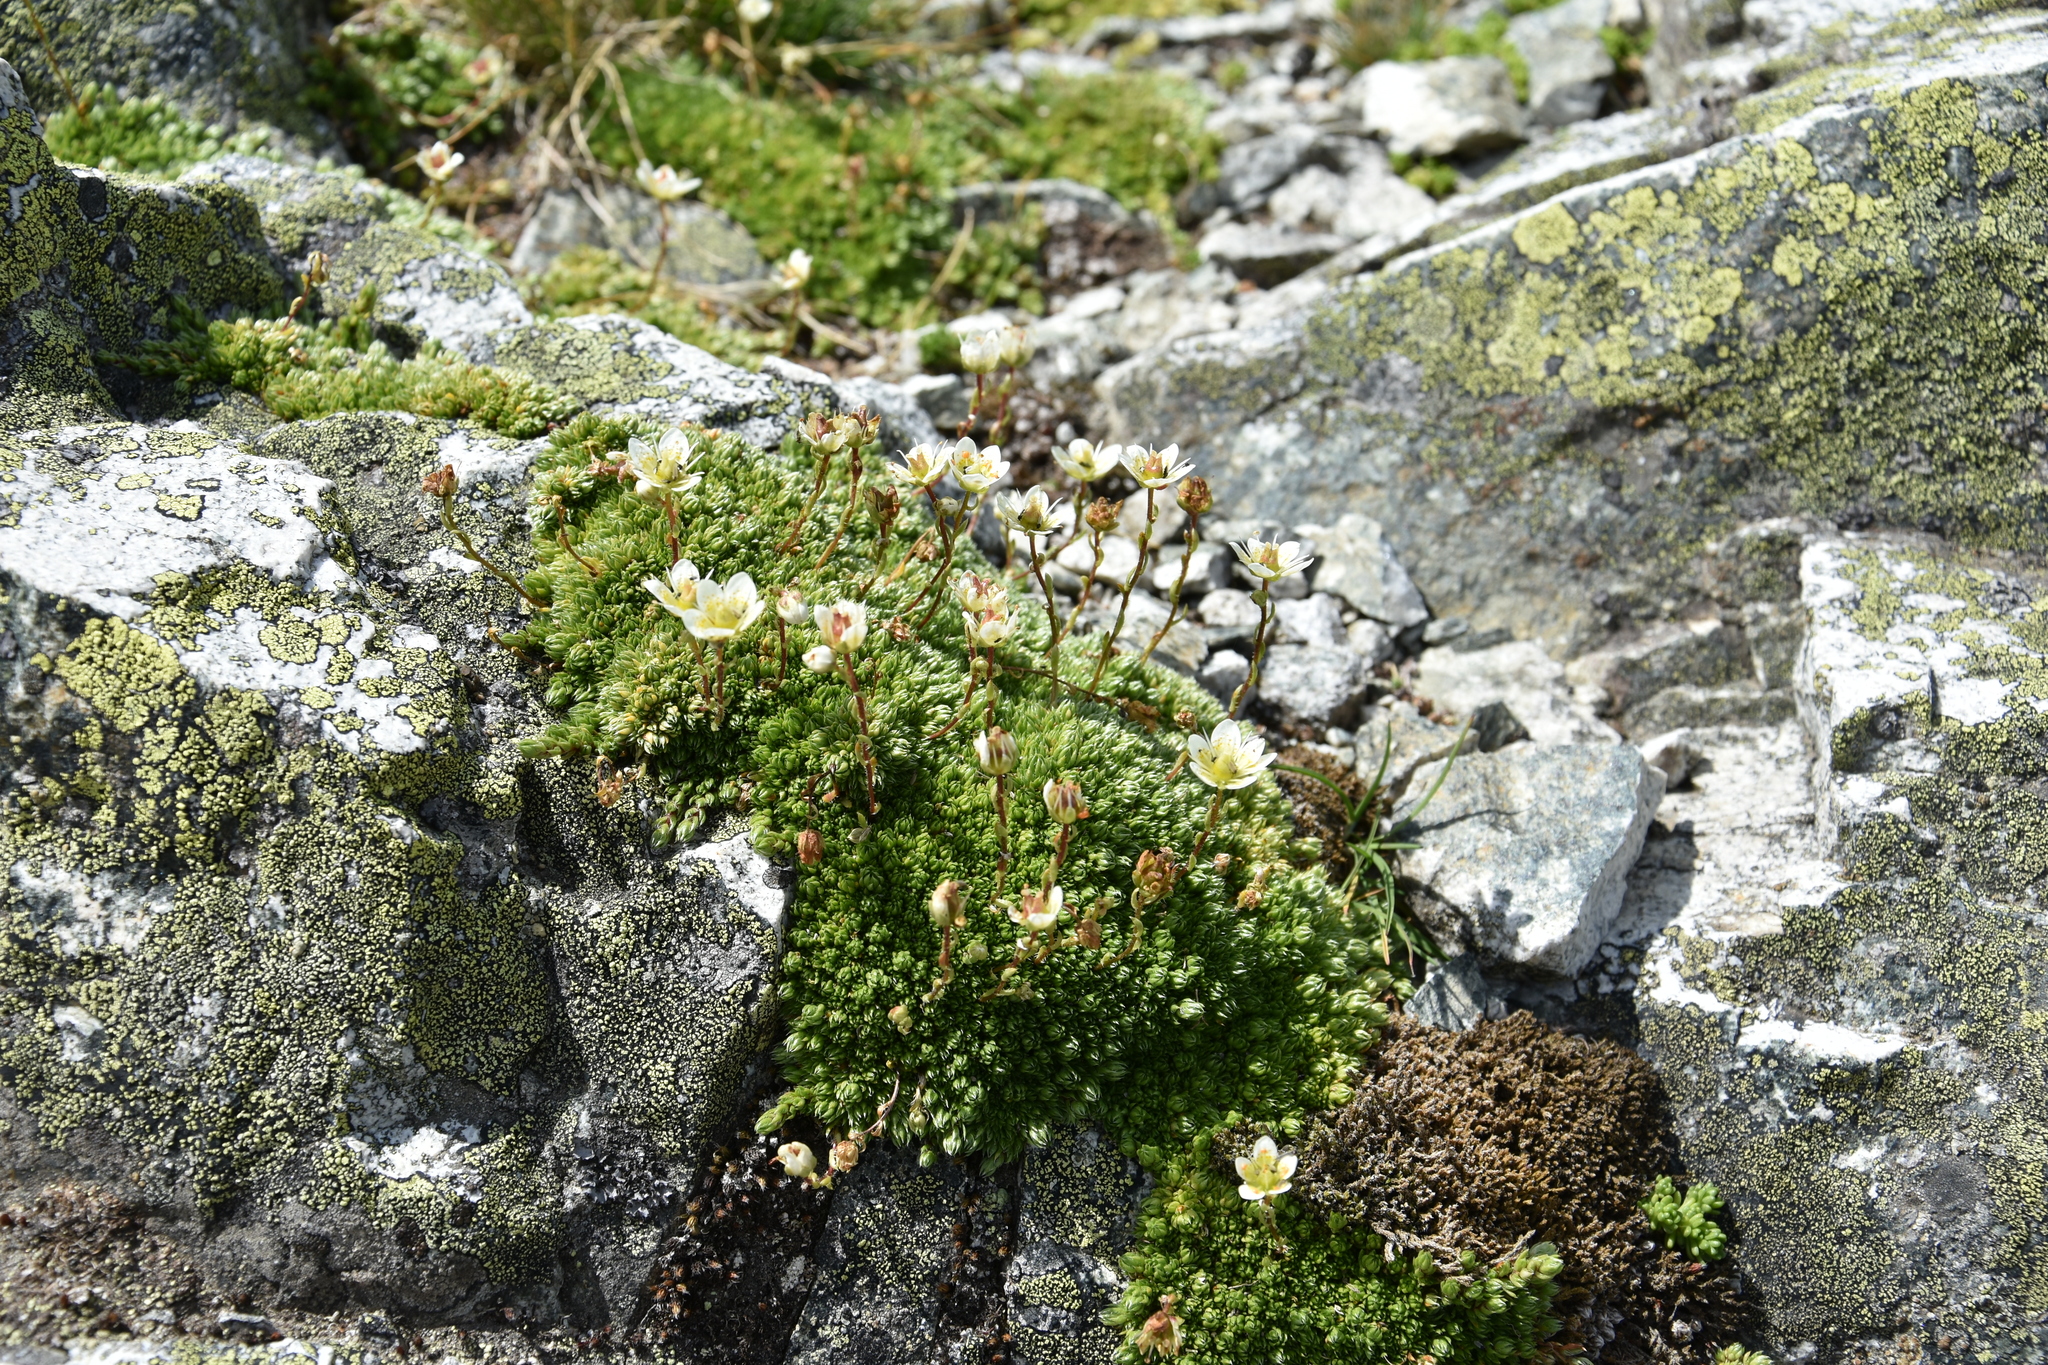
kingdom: Plantae
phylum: Tracheophyta
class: Magnoliopsida
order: Saxifragales
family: Saxifragaceae
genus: Saxifraga
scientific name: Saxifraga bryoides
